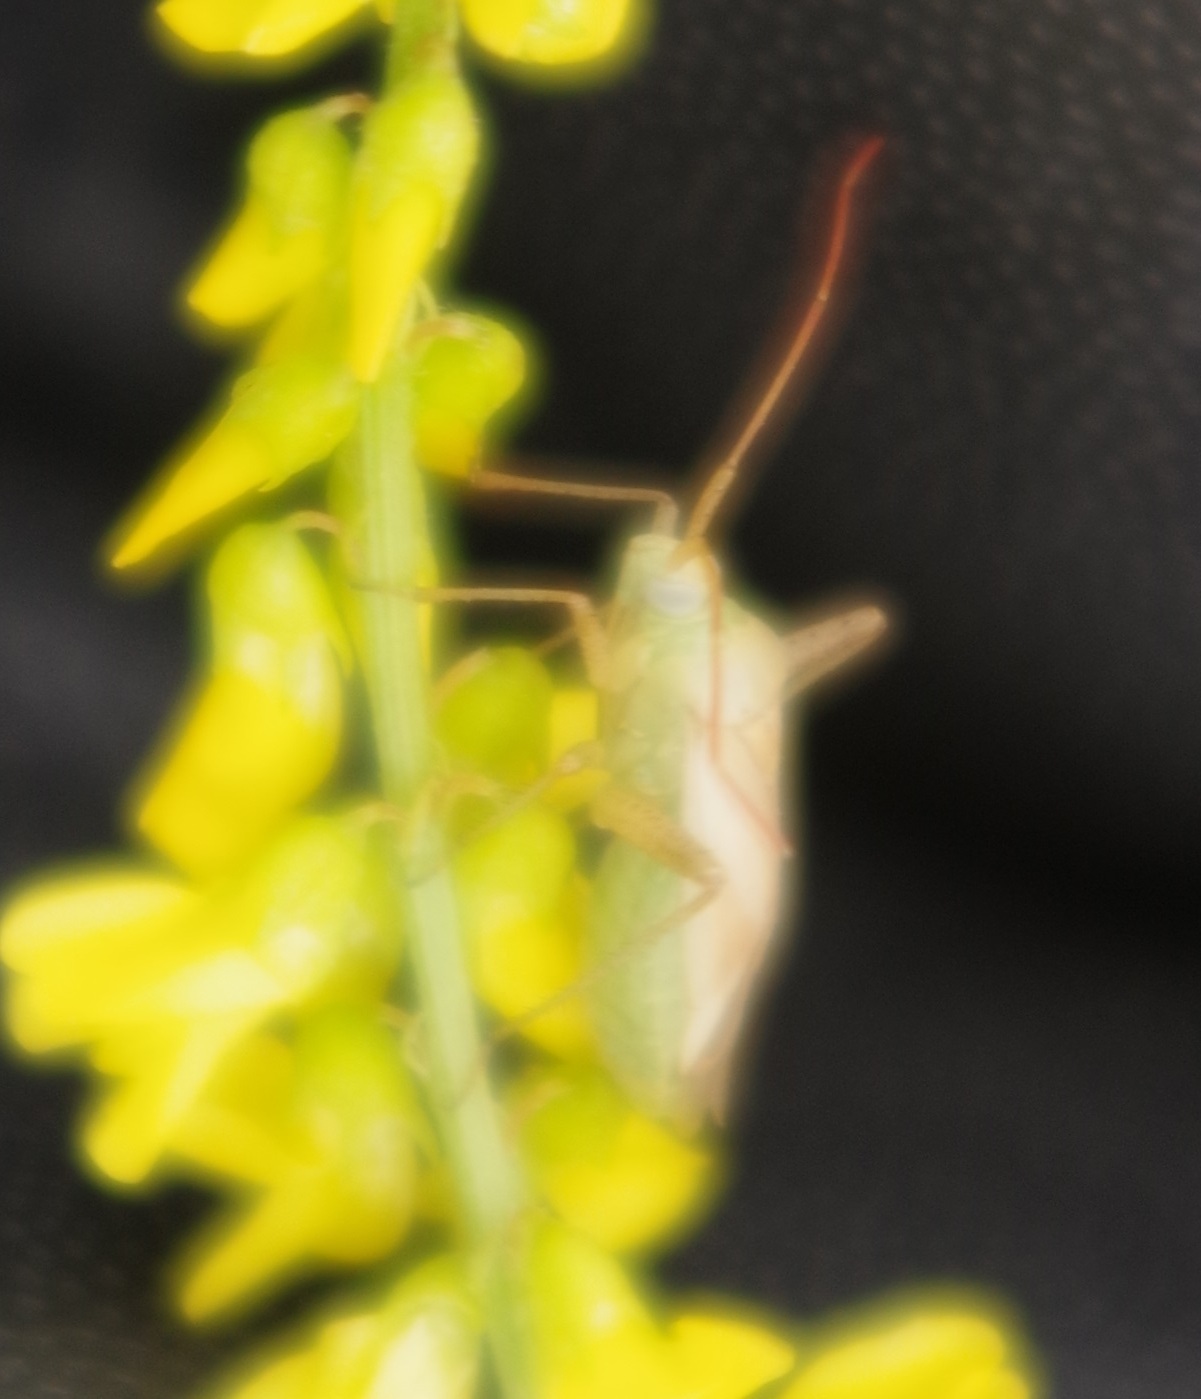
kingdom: Animalia
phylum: Arthropoda
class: Insecta
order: Hemiptera
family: Miridae
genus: Adelphocoris
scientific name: Adelphocoris lineolatus
